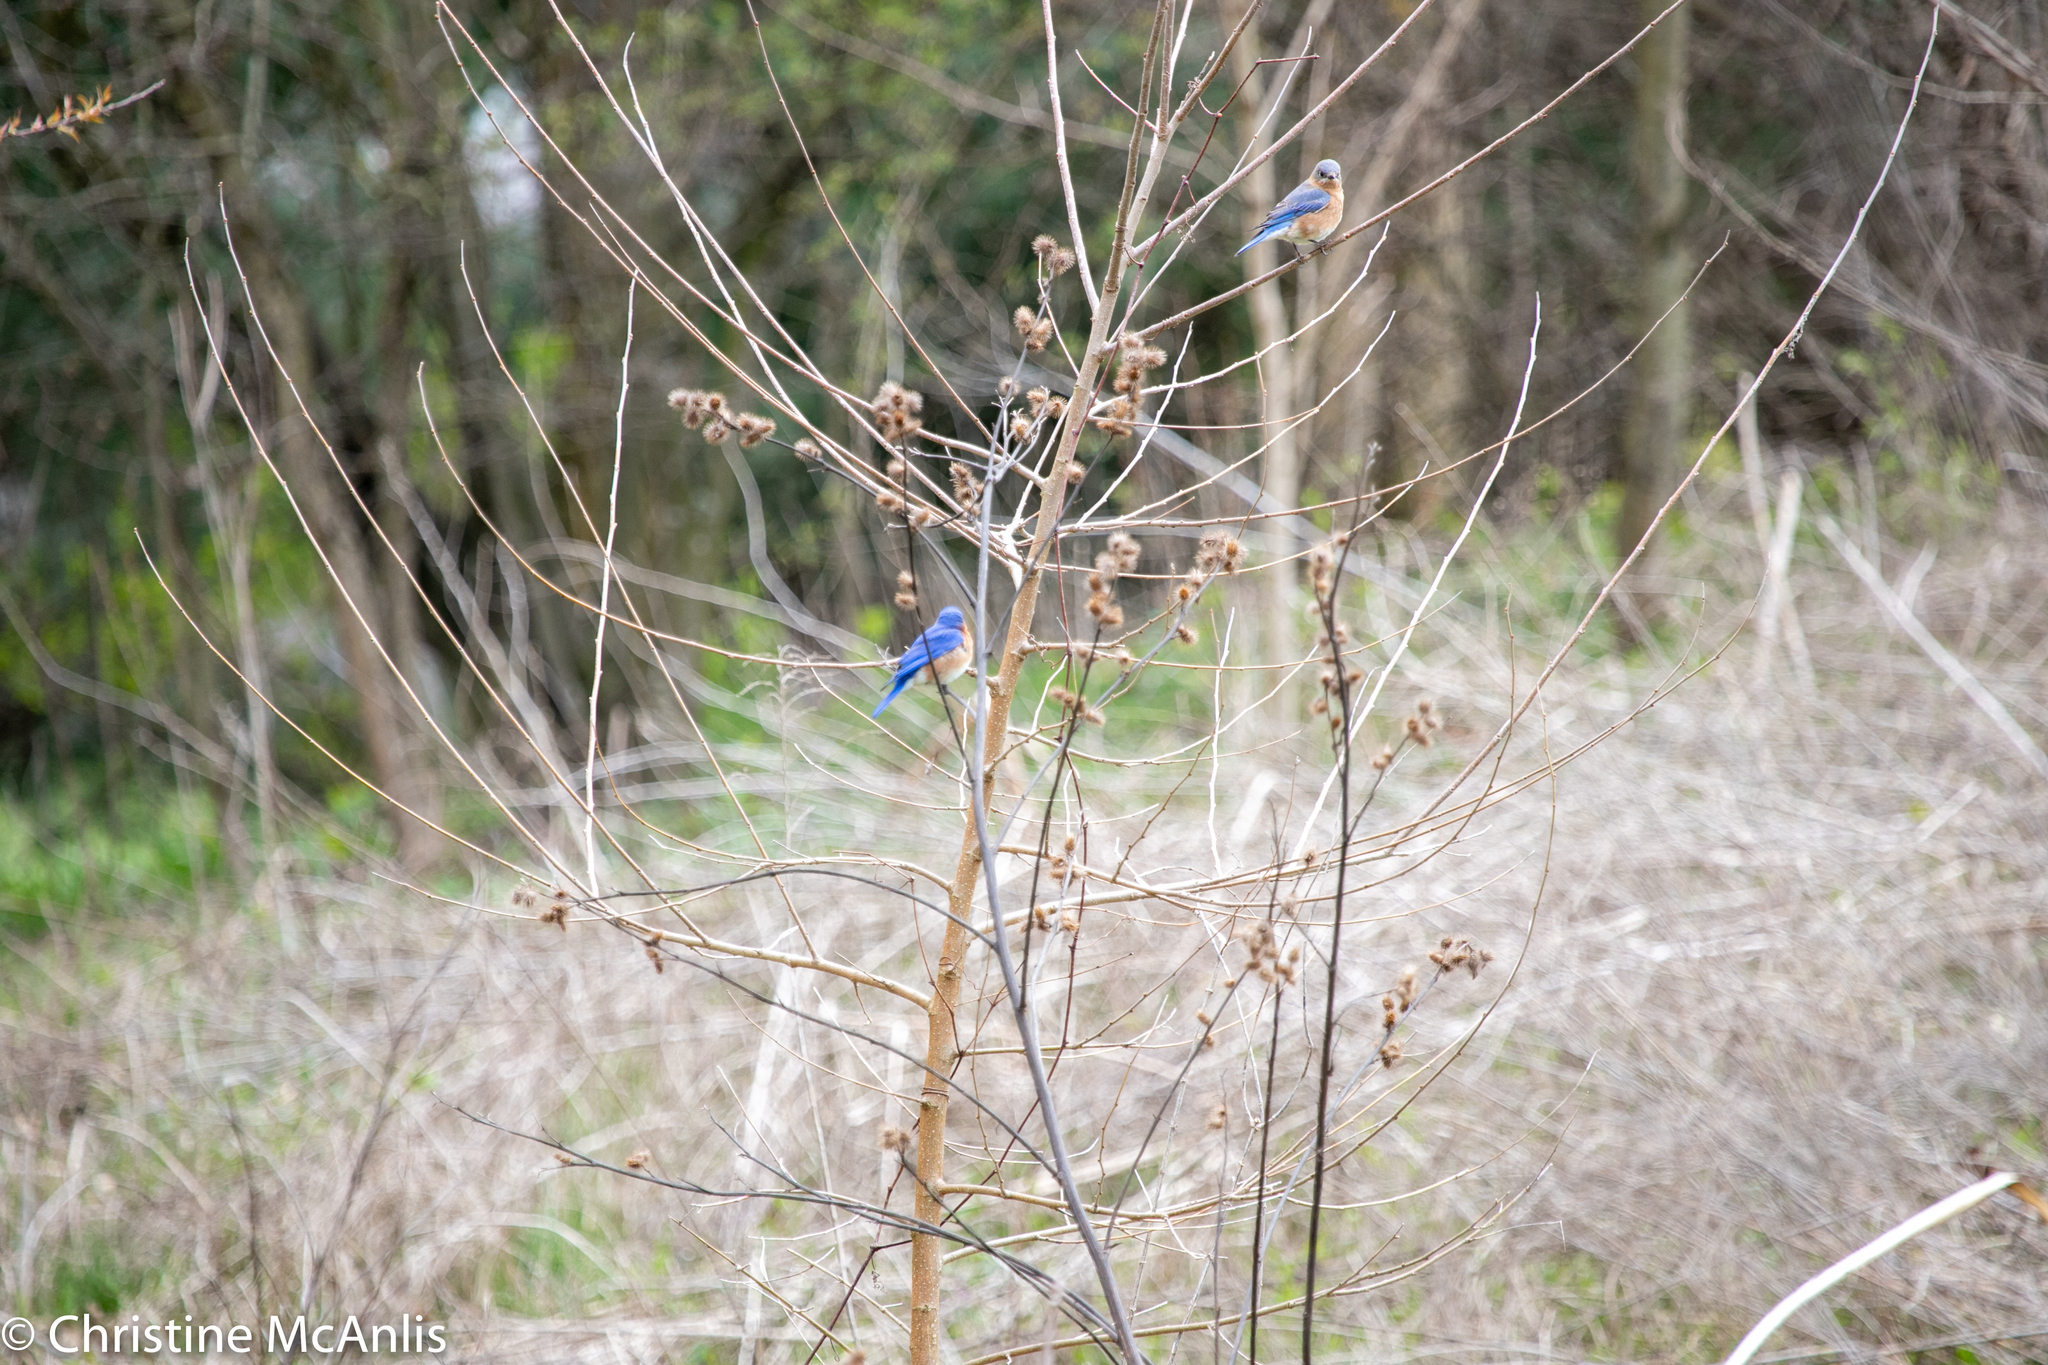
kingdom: Animalia
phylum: Chordata
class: Aves
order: Passeriformes
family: Turdidae
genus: Sialia
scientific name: Sialia sialis
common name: Eastern bluebird
